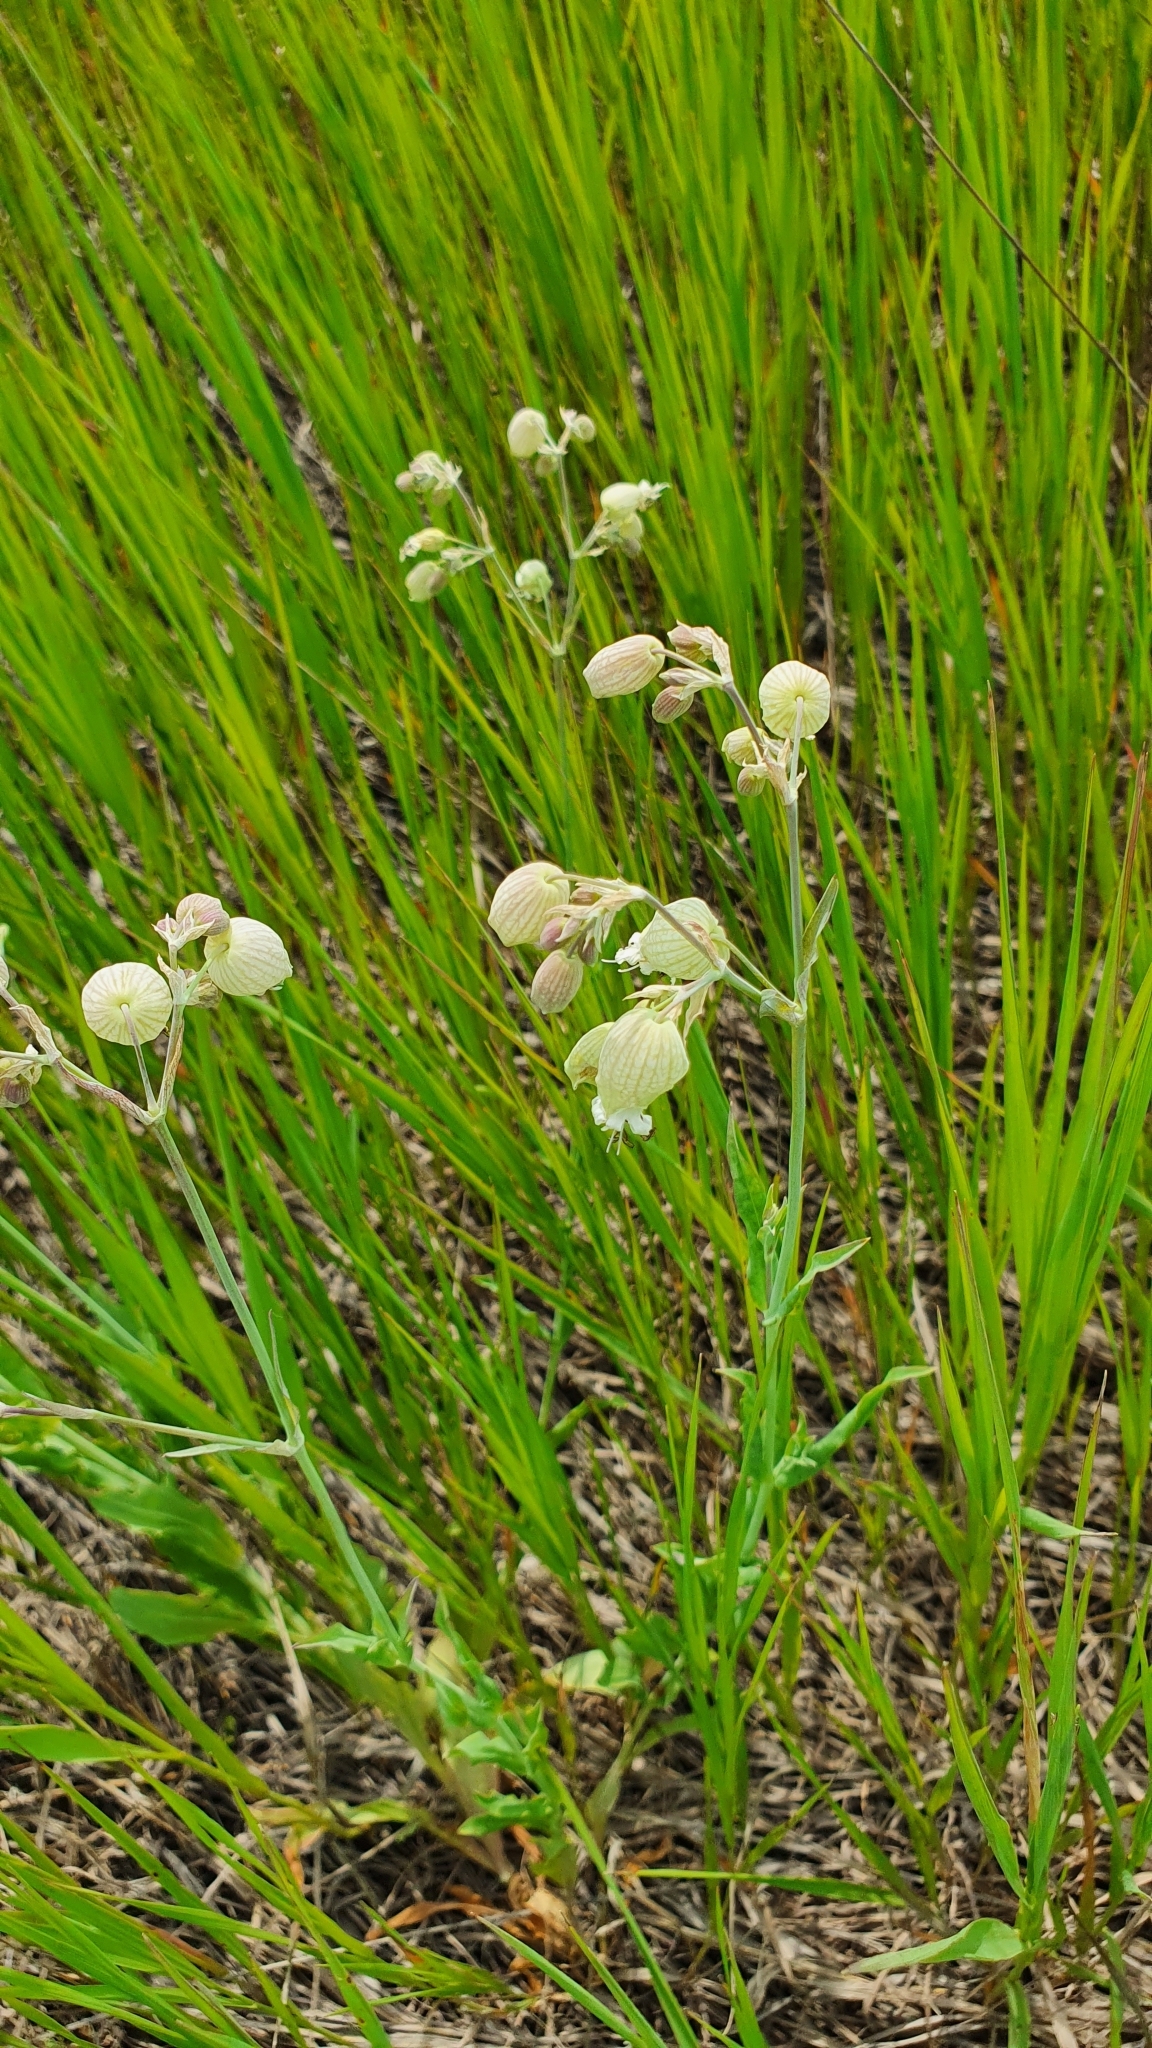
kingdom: Plantae
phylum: Tracheophyta
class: Magnoliopsida
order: Caryophyllales
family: Caryophyllaceae
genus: Silene
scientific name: Silene vulgaris
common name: Bladder campion
